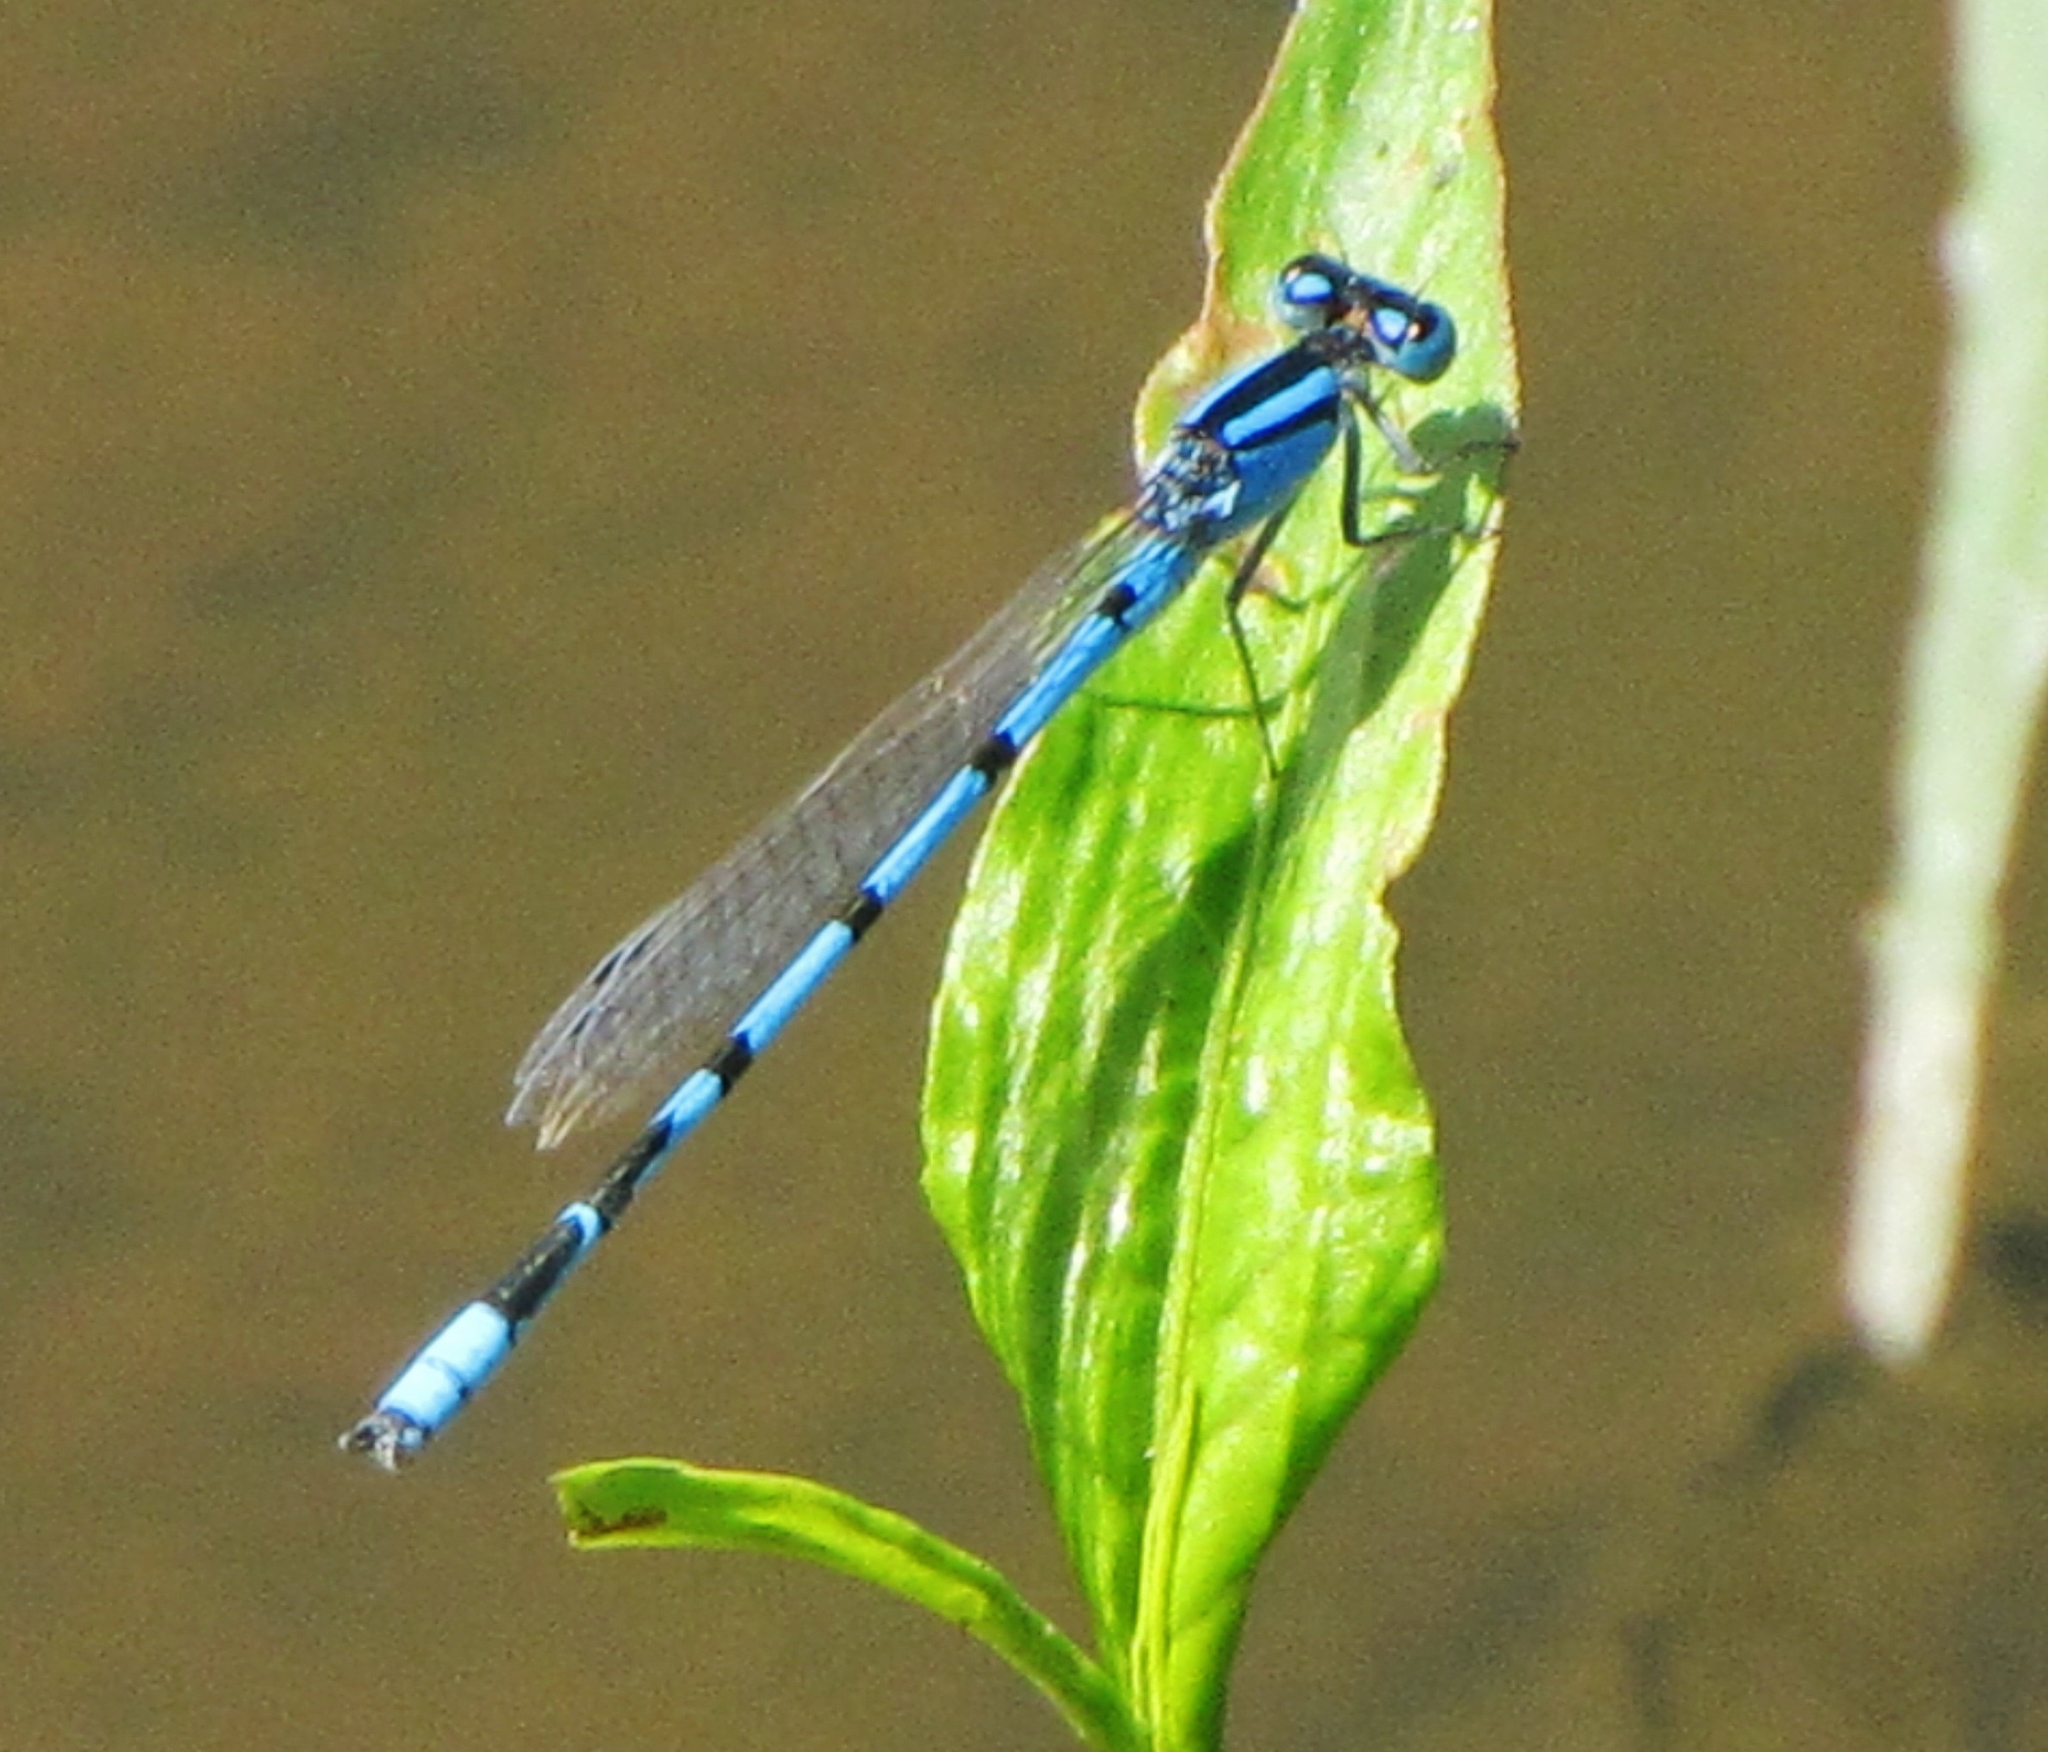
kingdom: Animalia
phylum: Arthropoda
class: Insecta
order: Odonata
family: Coenagrionidae
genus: Enallagma
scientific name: Enallagma civile
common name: Damselfly
